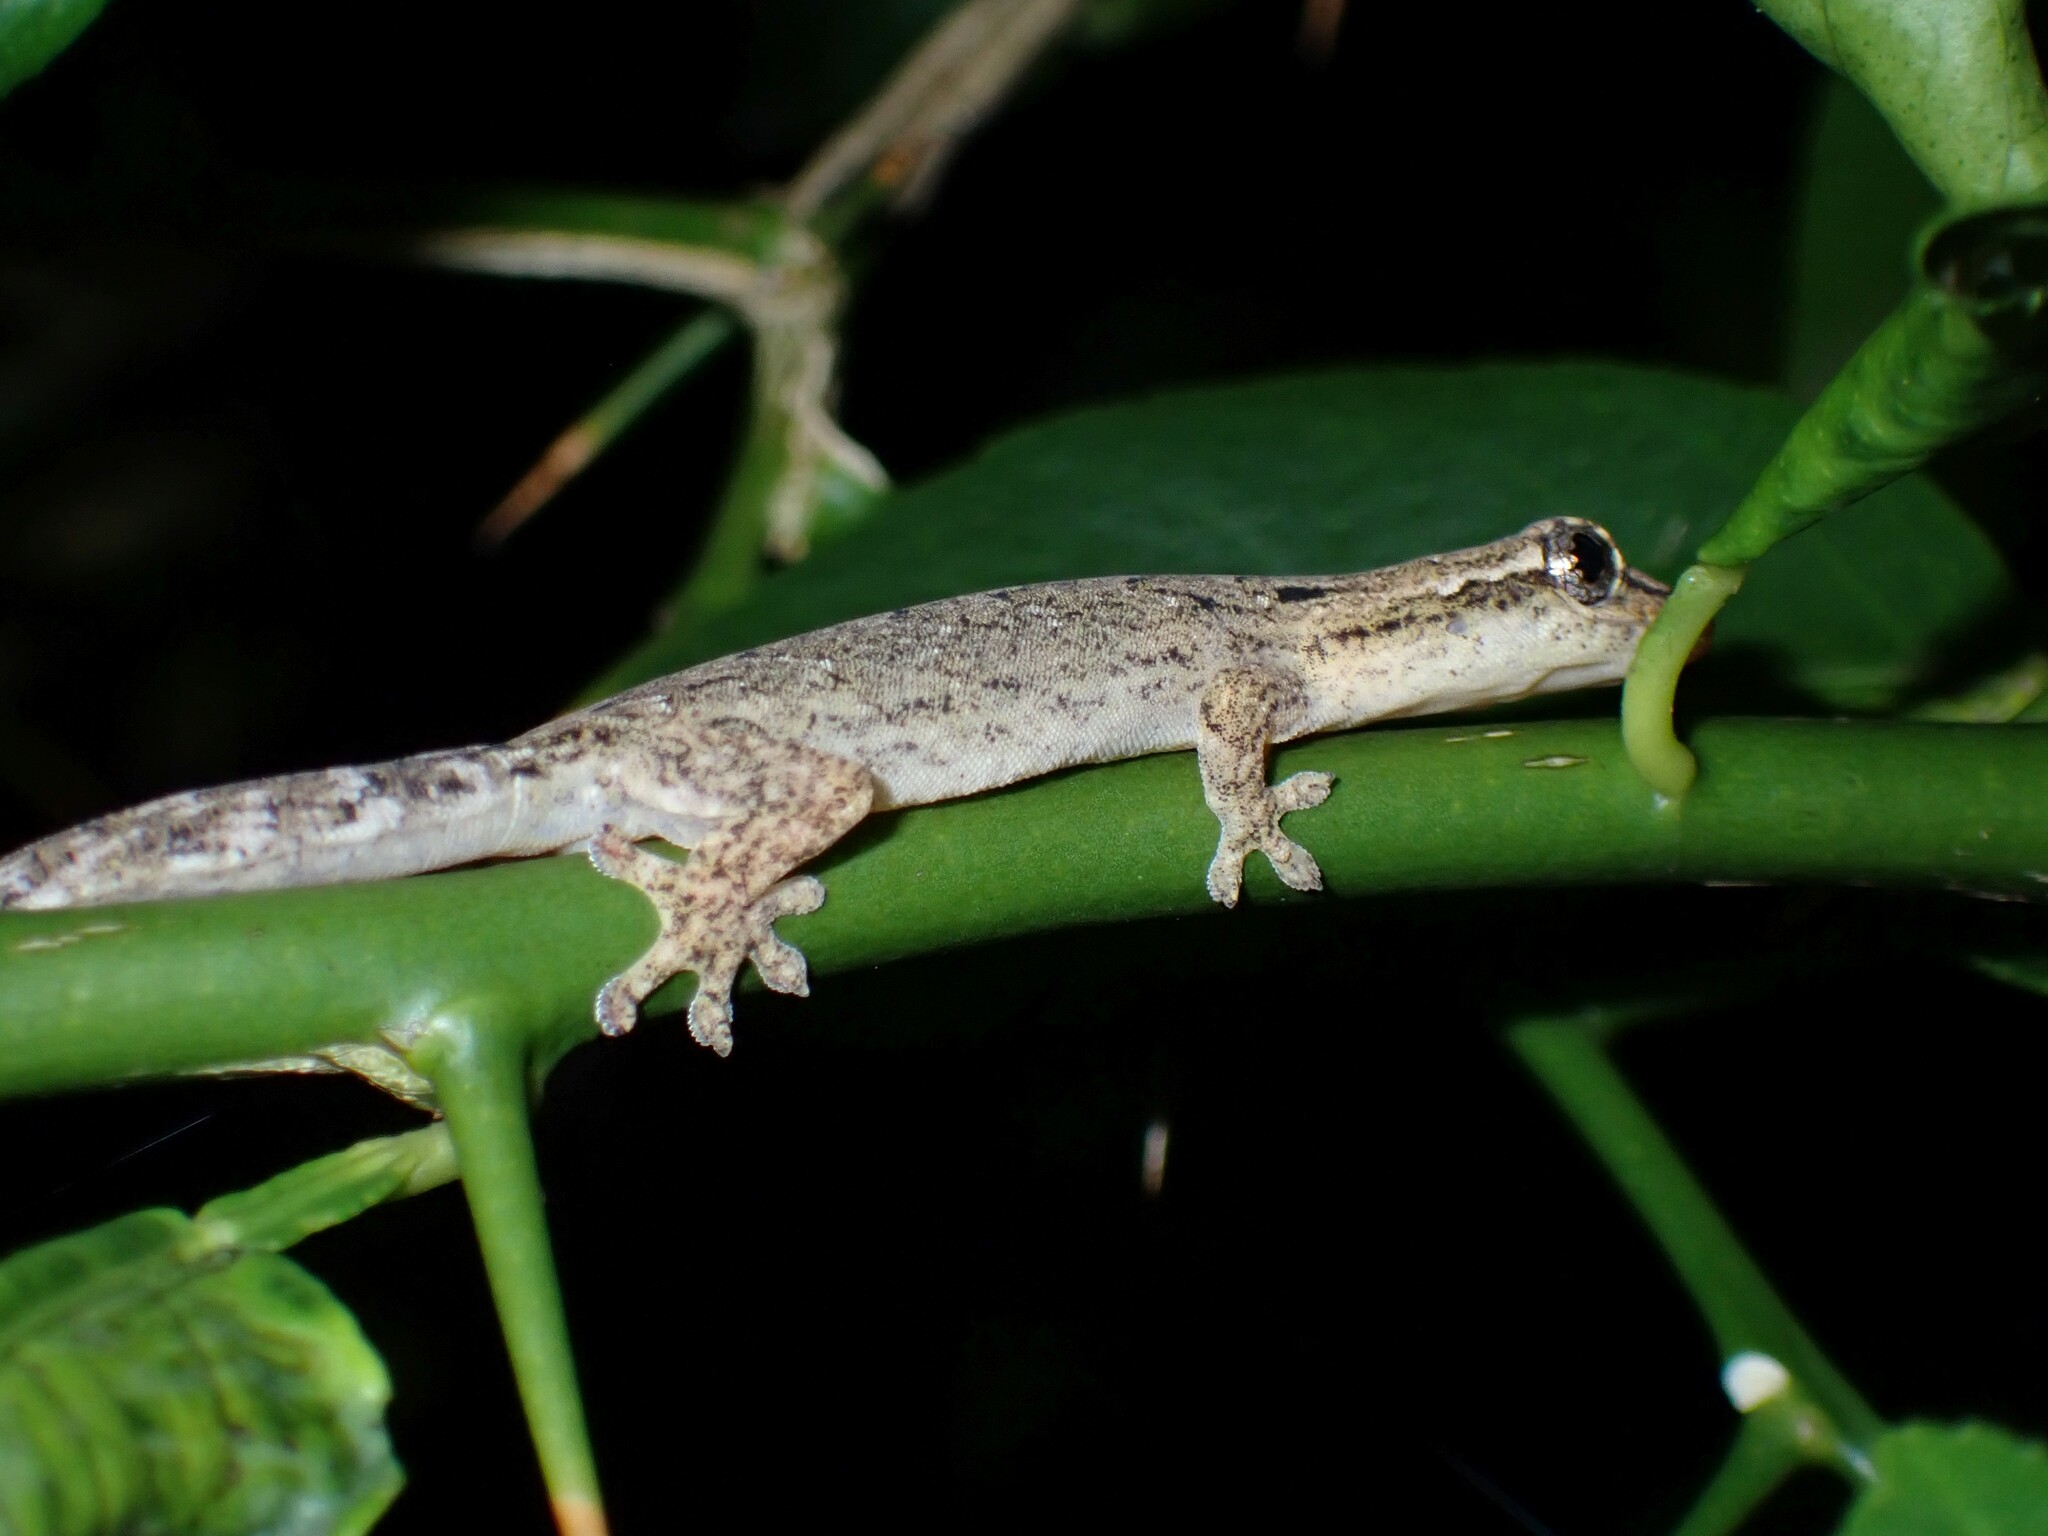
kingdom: Animalia
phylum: Chordata
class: Squamata
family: Gekkonidae
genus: Lepidodactylus
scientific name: Lepidodactylus lugubris
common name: Mourning gecko
